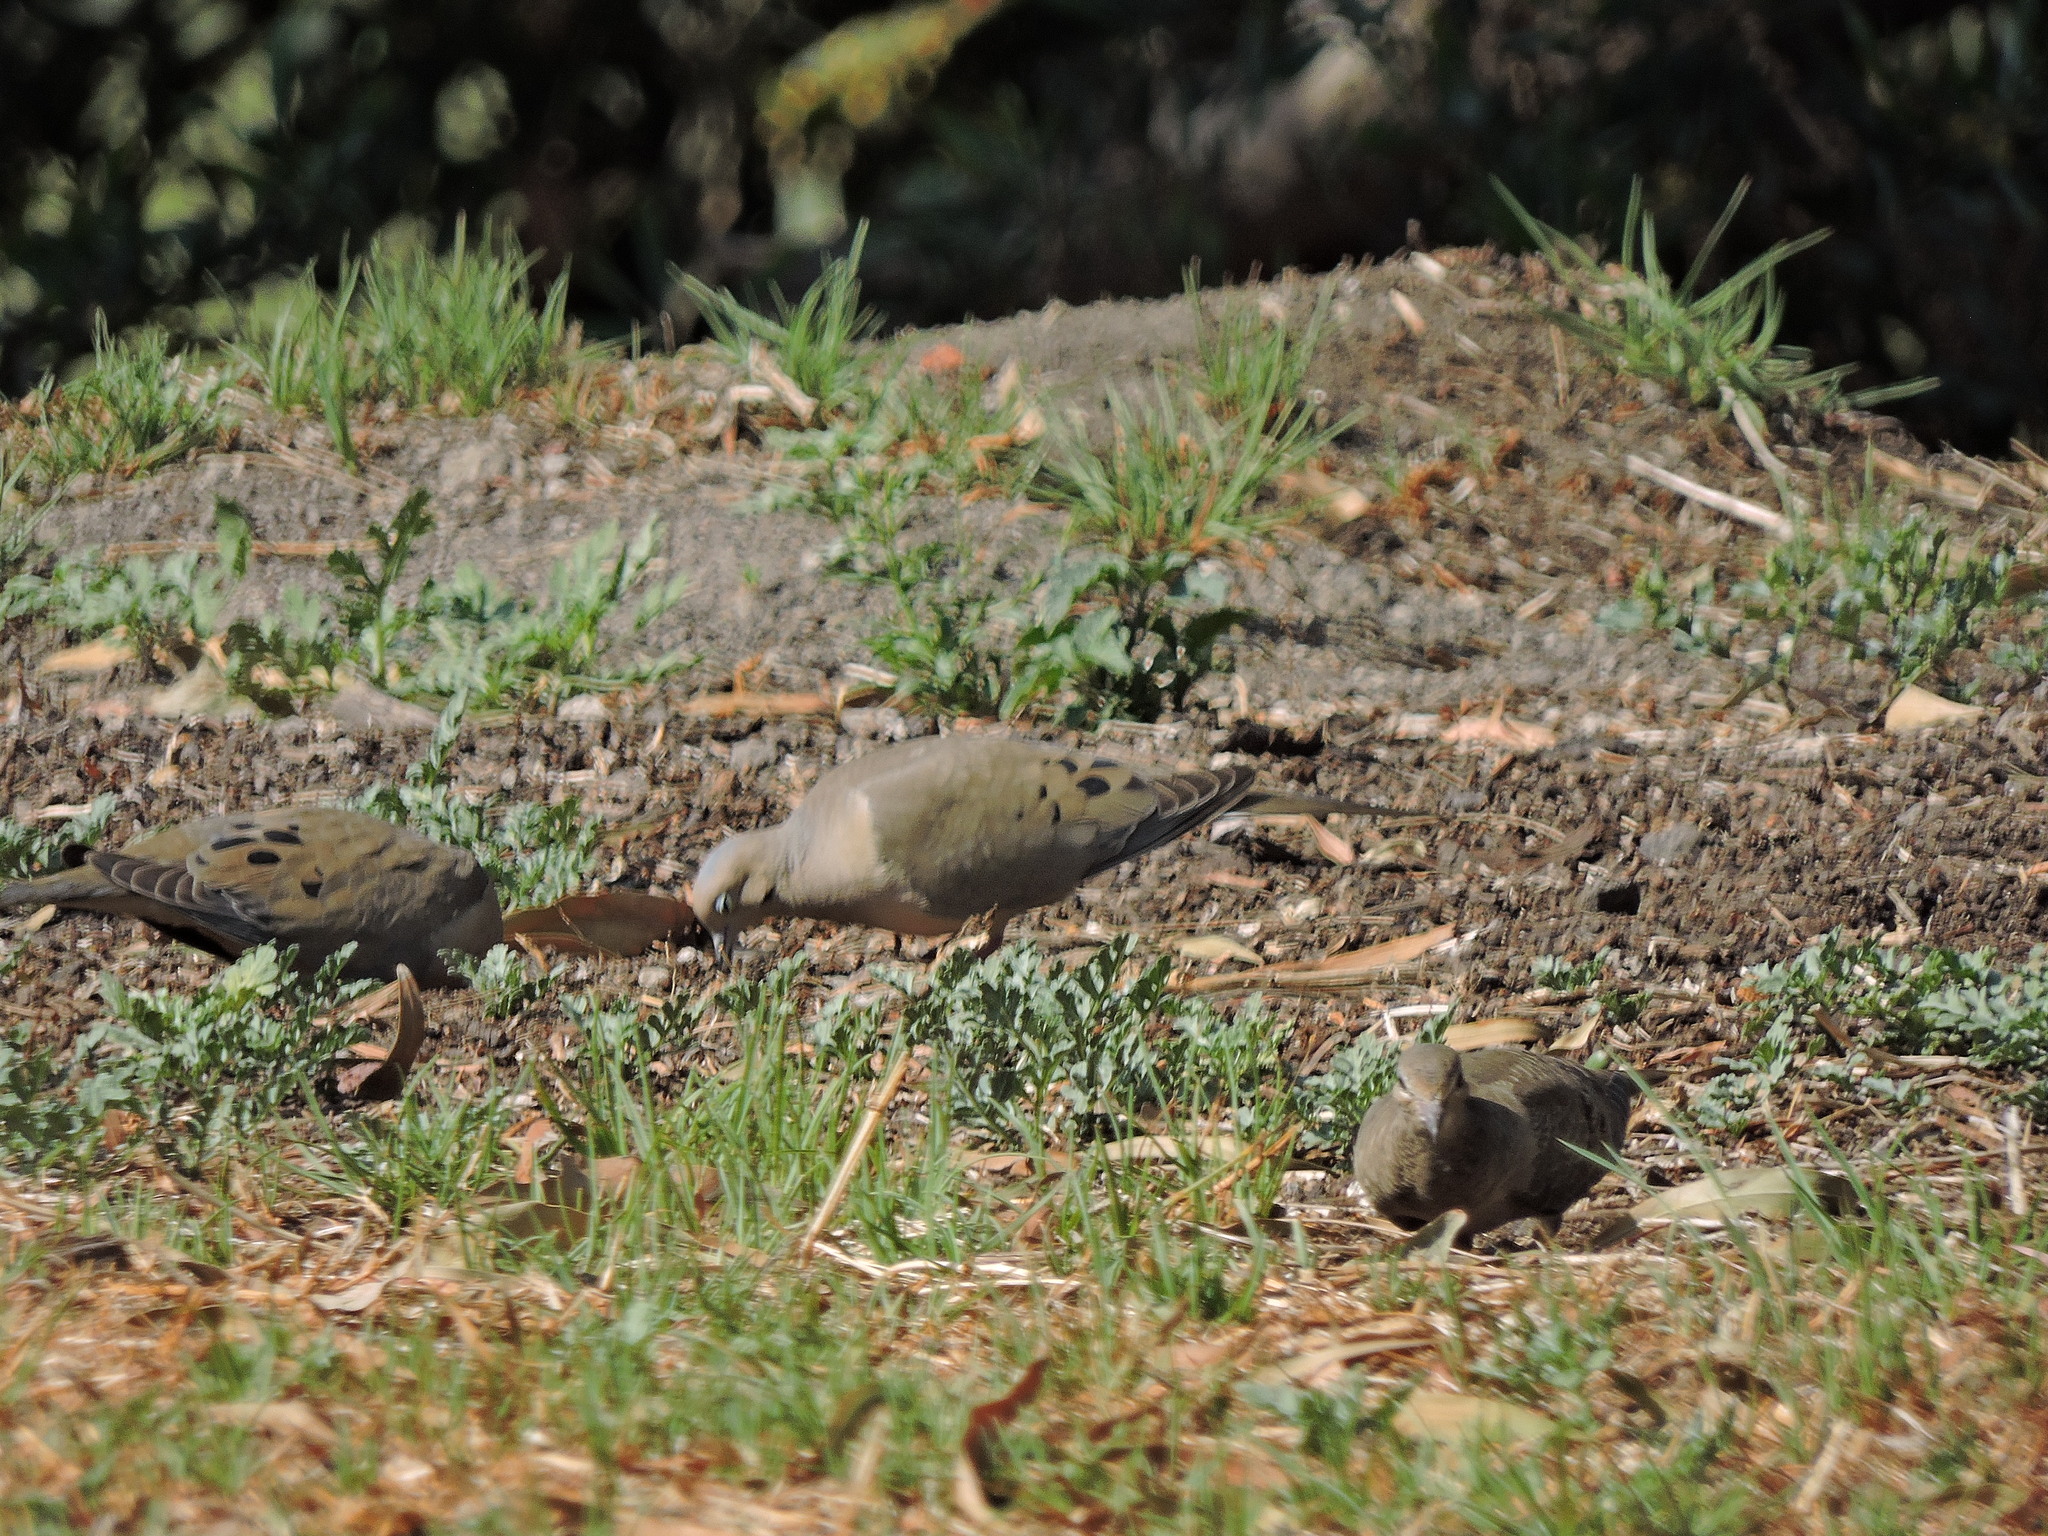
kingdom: Animalia
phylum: Chordata
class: Aves
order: Columbiformes
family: Columbidae
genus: Zenaida
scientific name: Zenaida macroura
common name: Mourning dove
